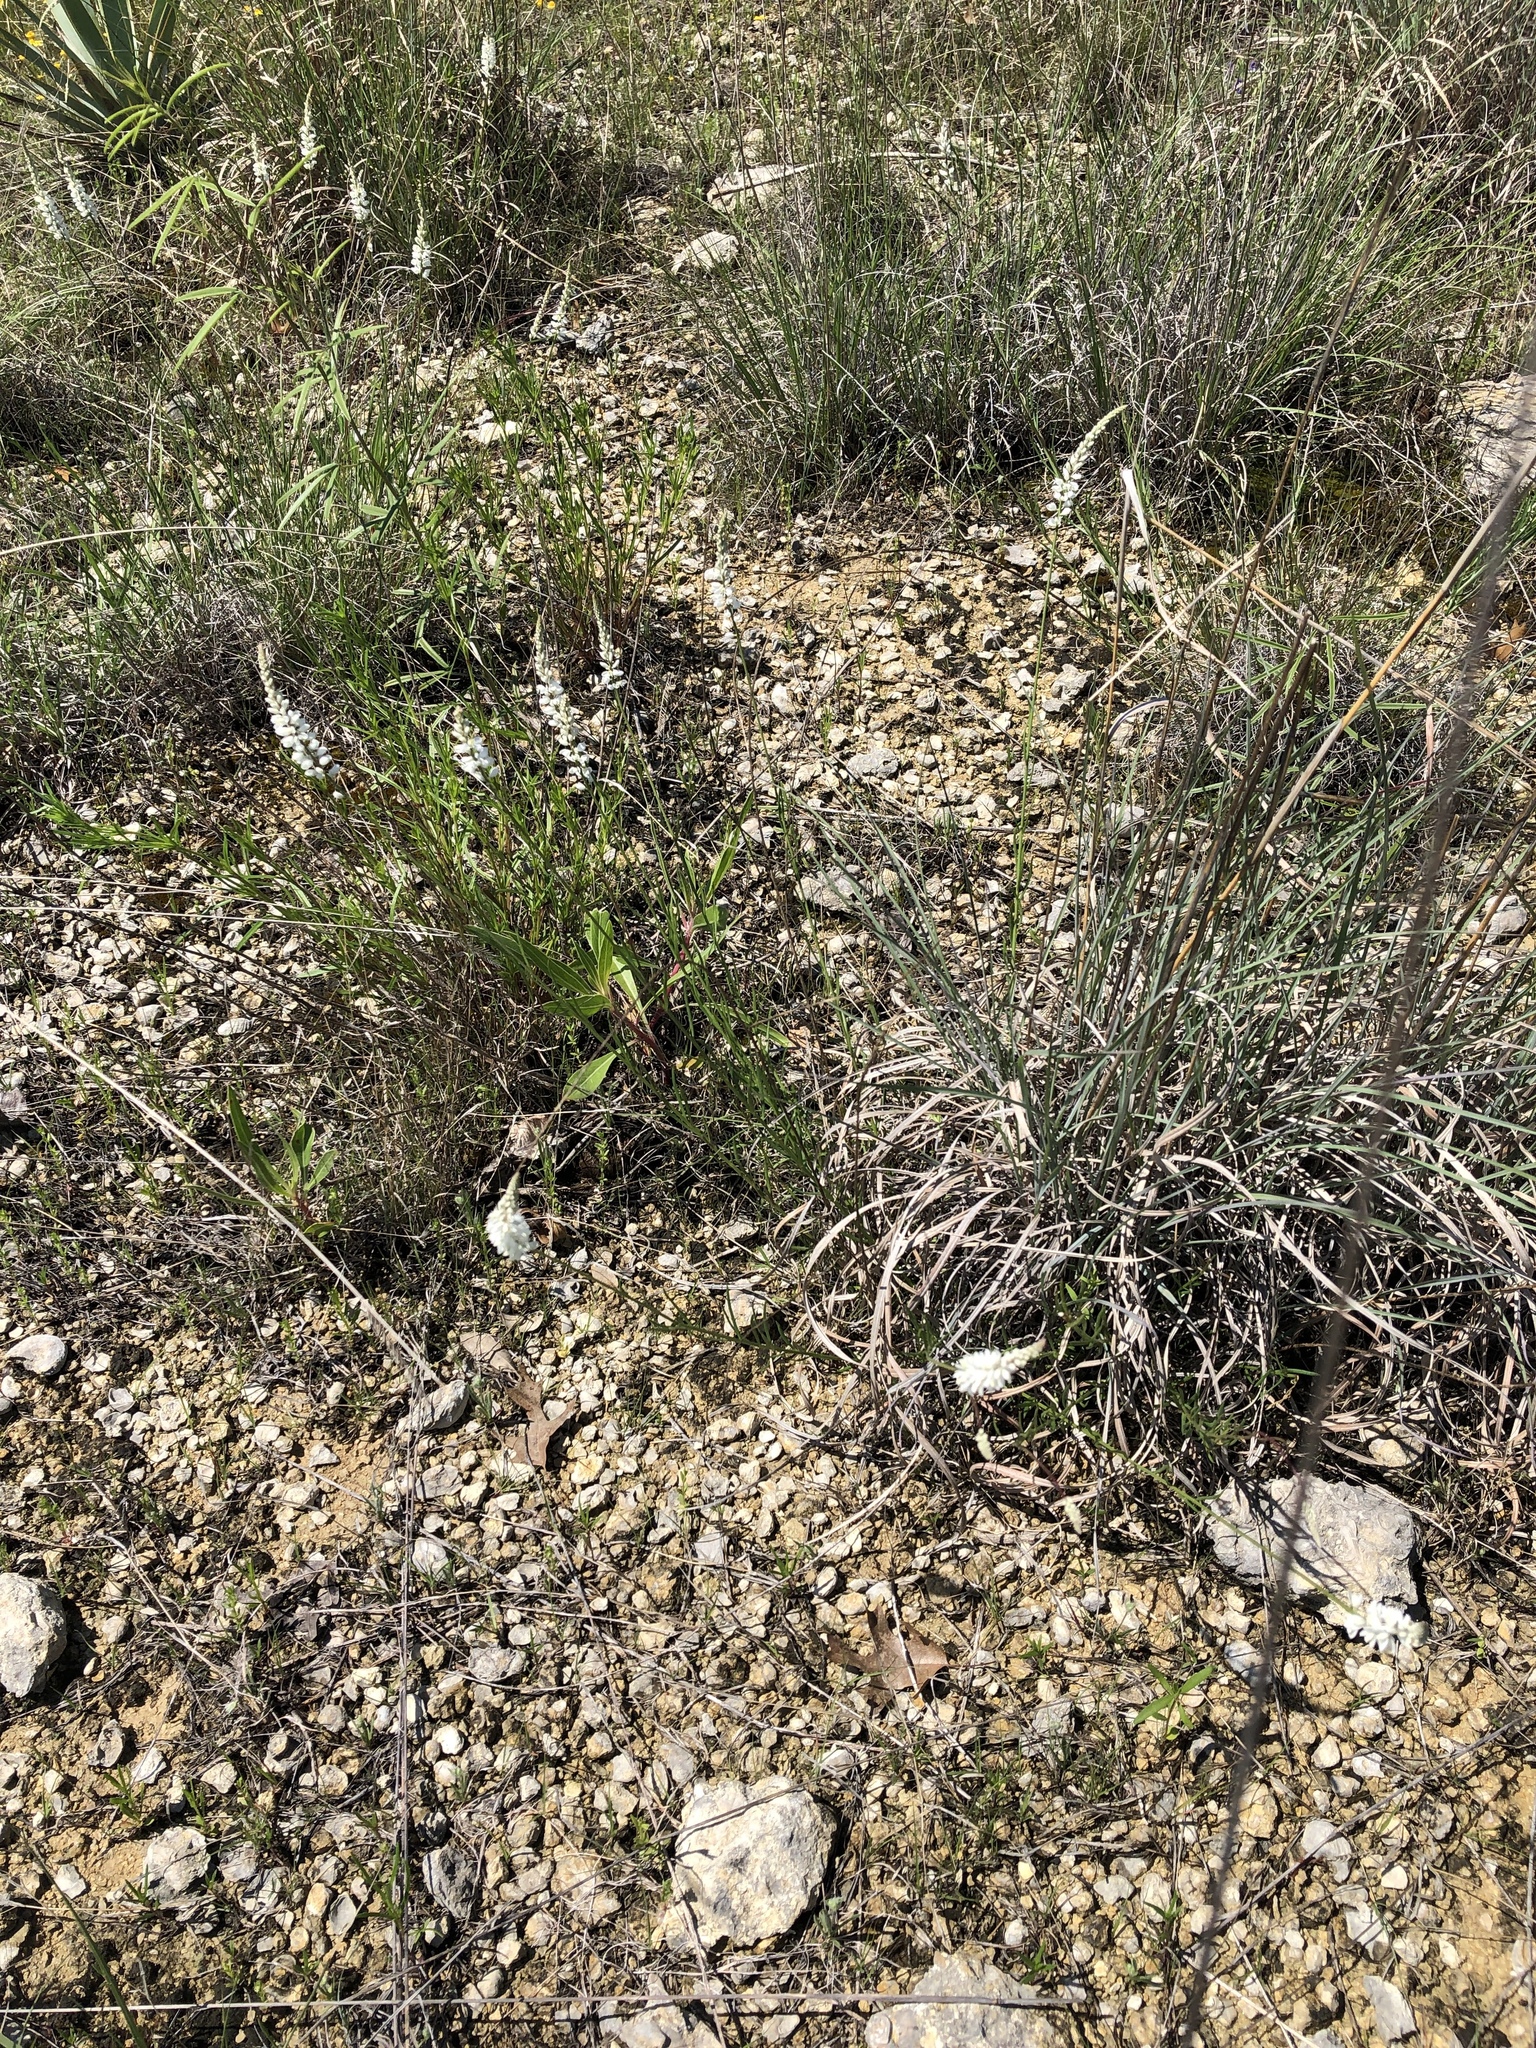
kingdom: Plantae
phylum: Tracheophyta
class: Magnoliopsida
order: Fabales
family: Polygalaceae
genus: Polygala
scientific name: Polygala alba
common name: White milkwort
